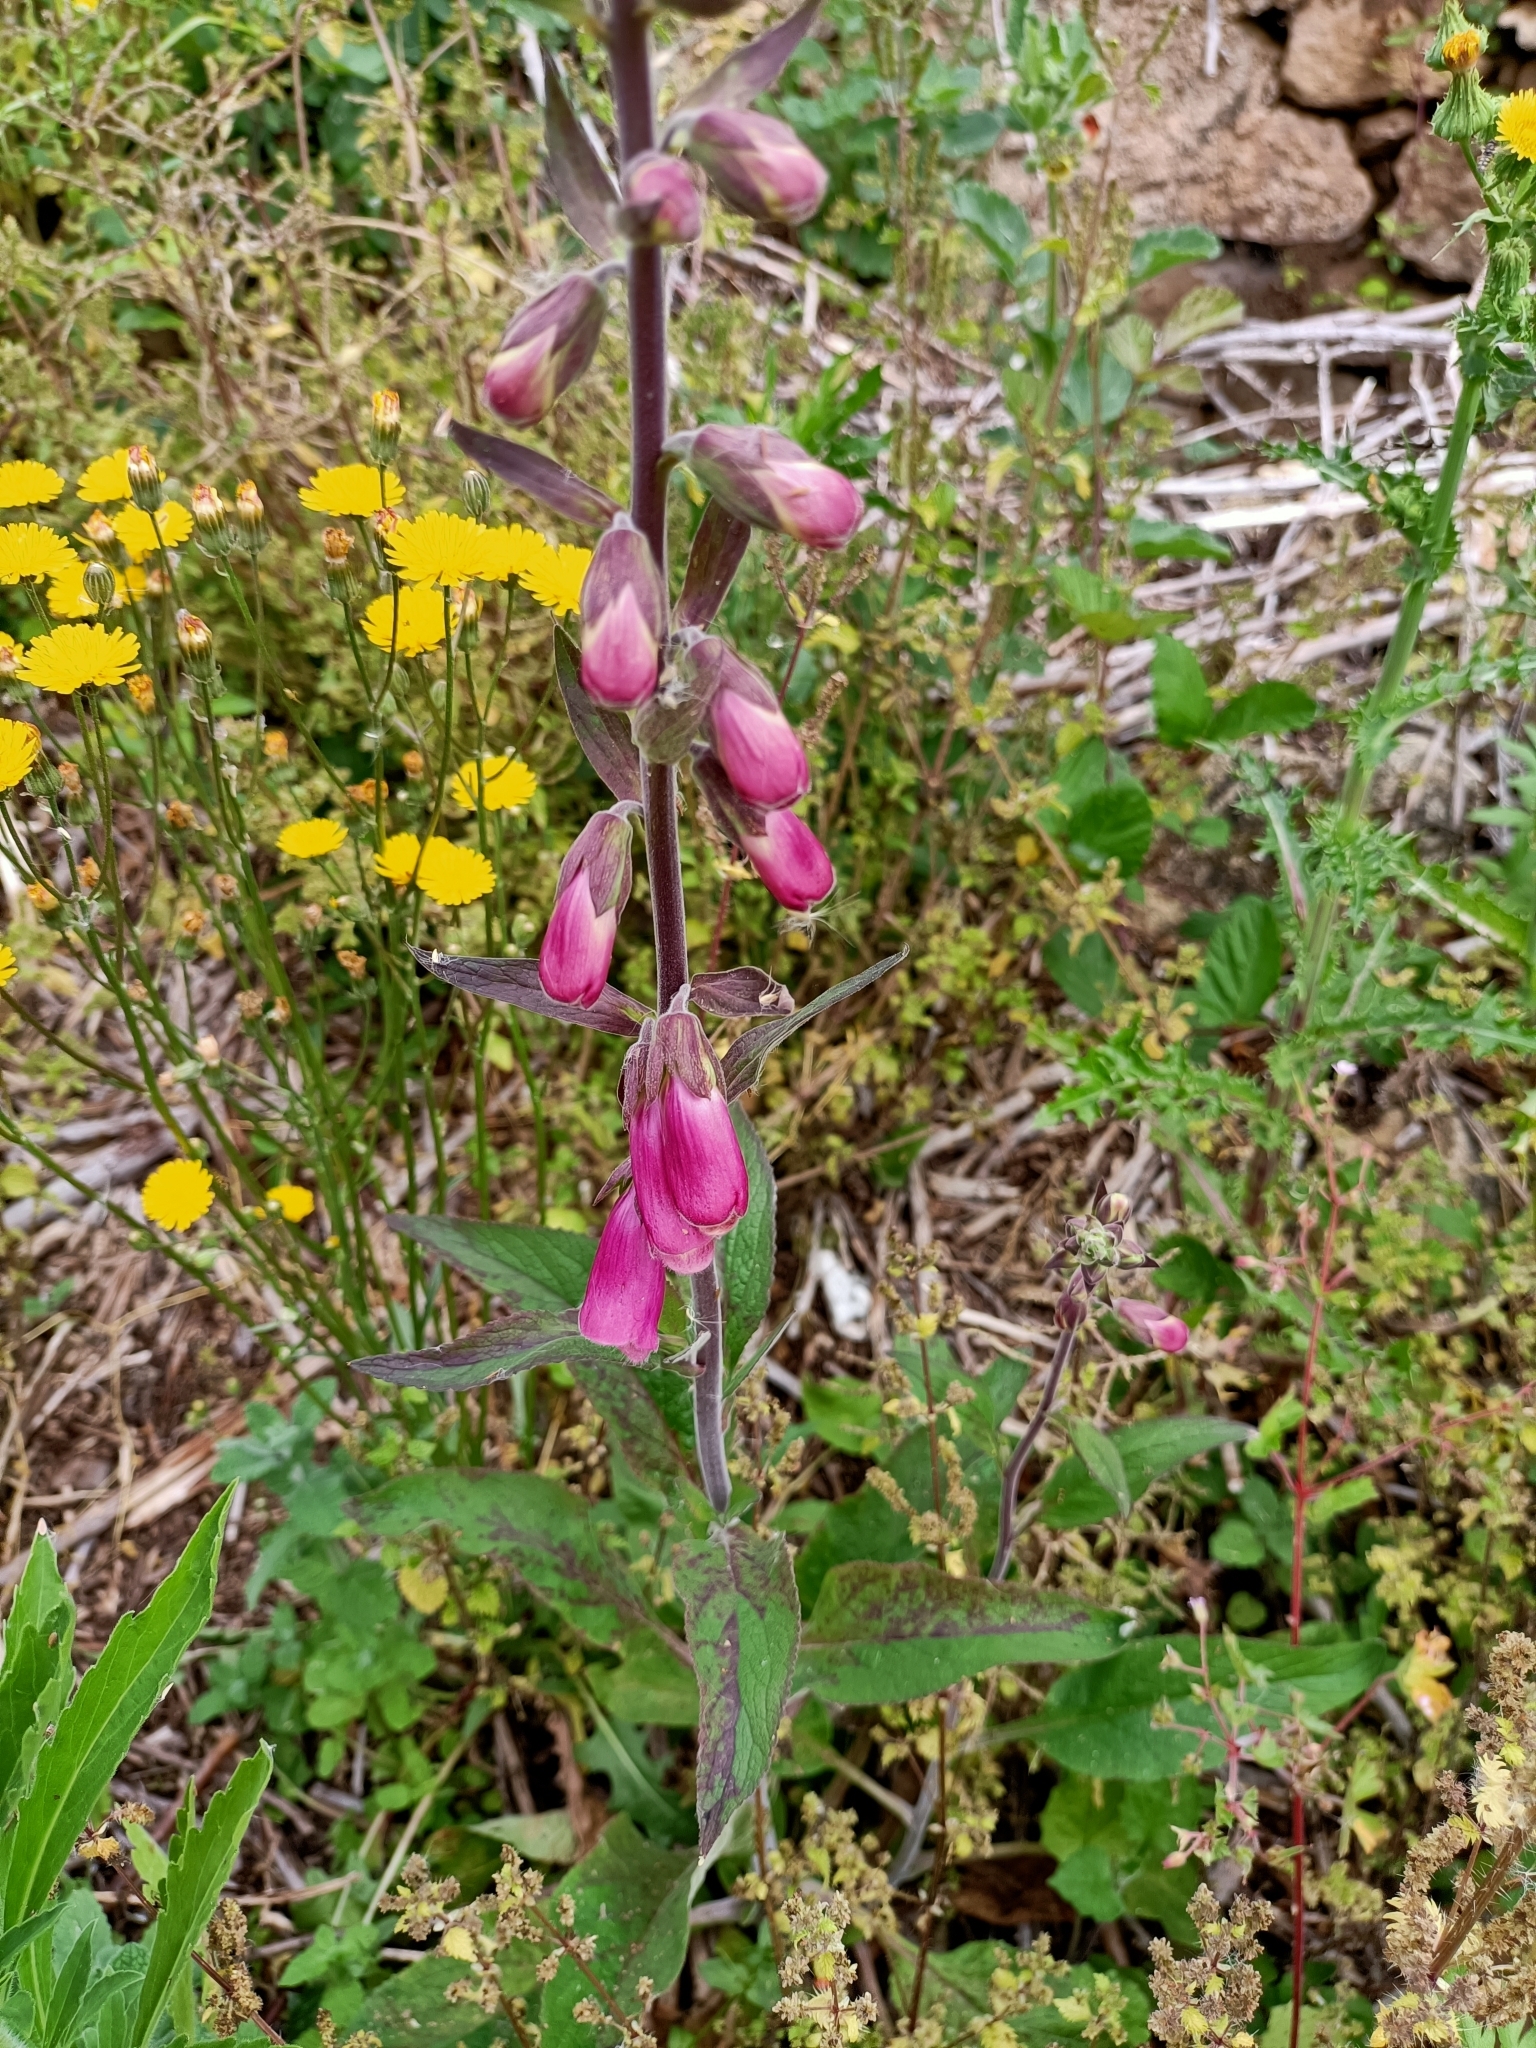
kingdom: Plantae
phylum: Tracheophyta
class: Magnoliopsida
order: Lamiales
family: Plantaginaceae
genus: Digitalis
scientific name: Digitalis purpurea
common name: Foxglove
